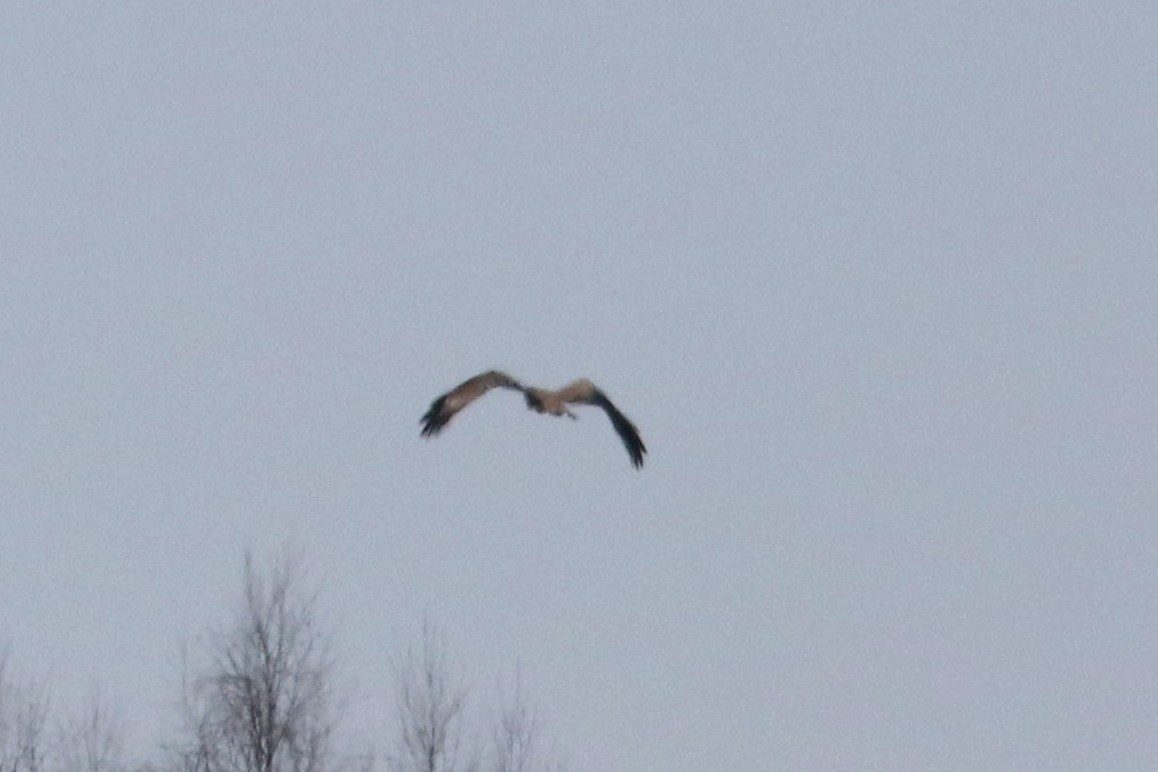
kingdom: Animalia
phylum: Chordata
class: Aves
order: Accipitriformes
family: Accipitridae
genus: Milvus
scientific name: Milvus migrans
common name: Black kite
